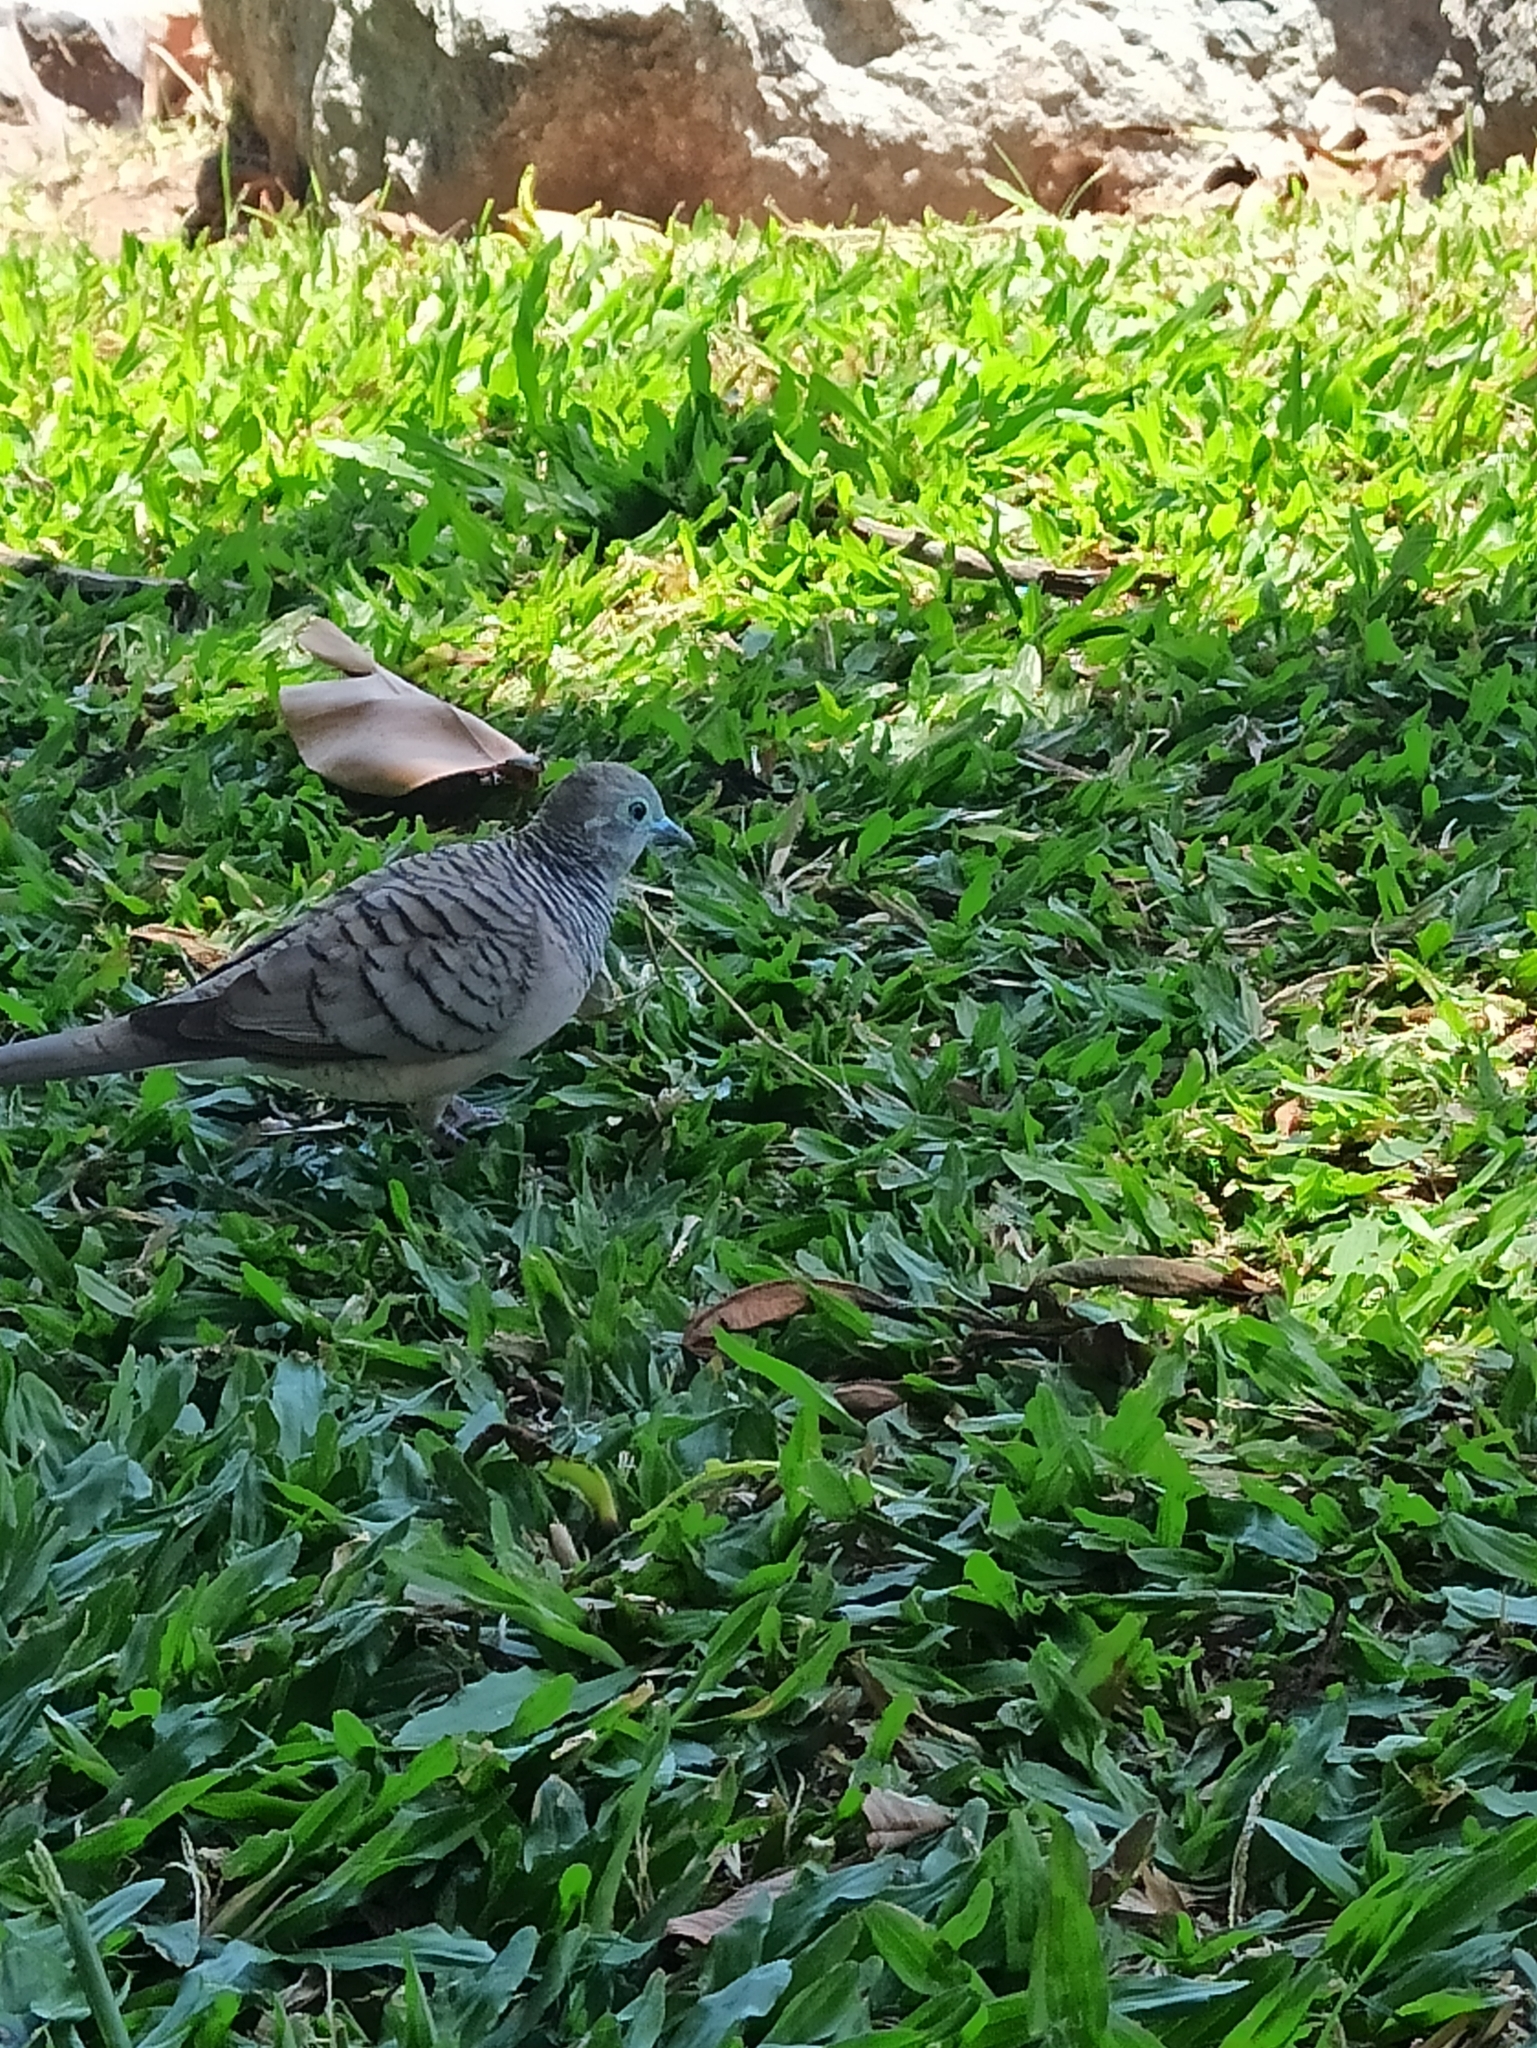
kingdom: Animalia
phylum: Chordata
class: Aves
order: Columbiformes
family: Columbidae
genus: Geopelia
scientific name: Geopelia placida
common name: Peaceful dove
